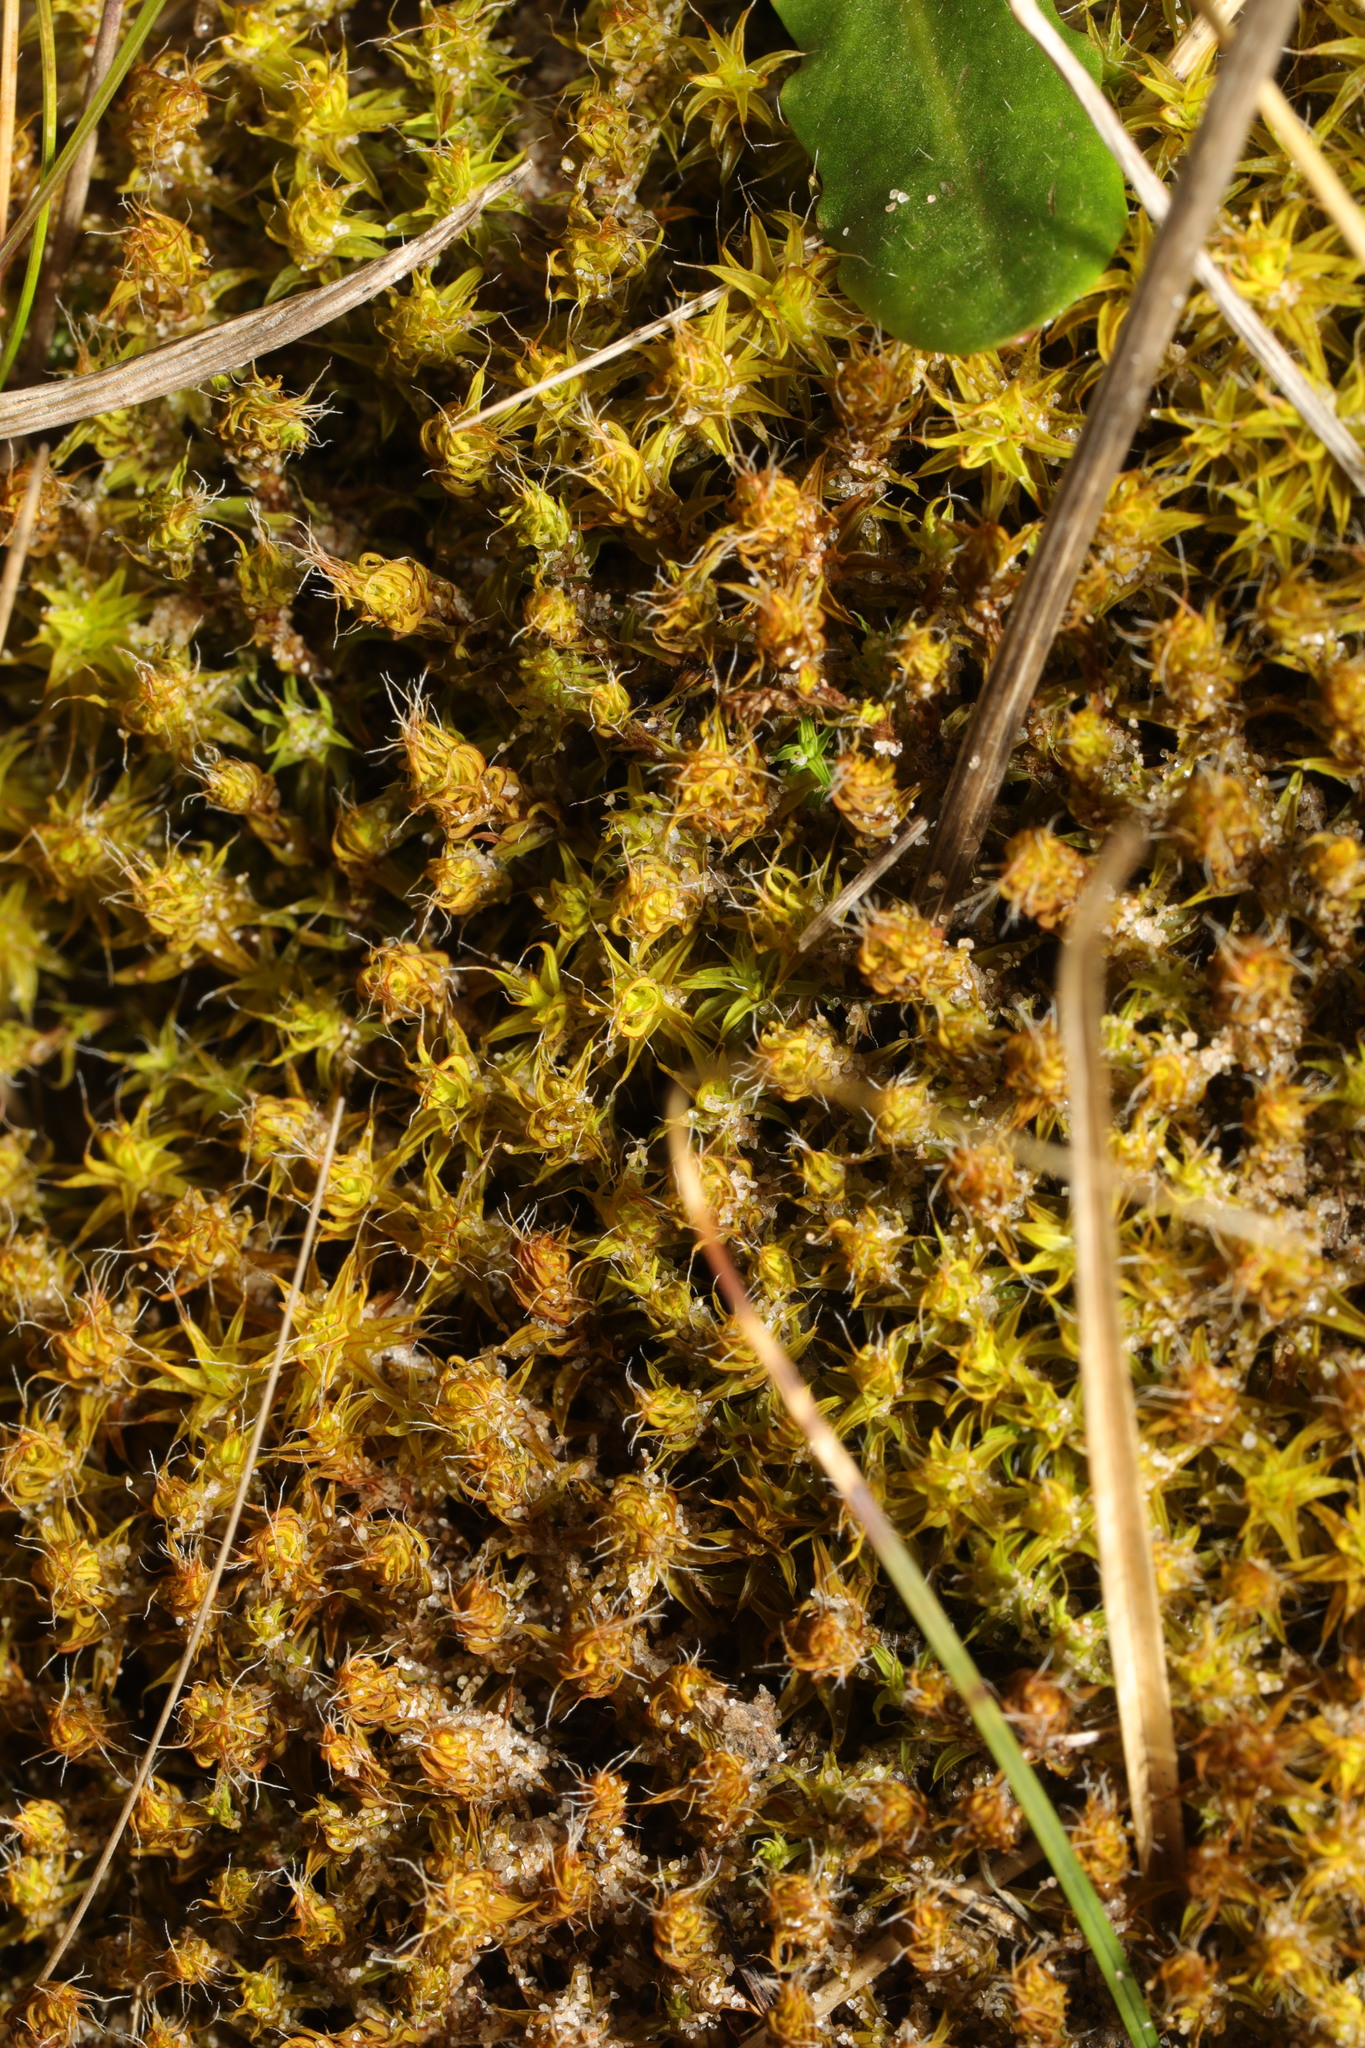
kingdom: Plantae
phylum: Bryophyta
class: Bryopsida
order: Pottiales
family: Pottiaceae
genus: Syntrichia
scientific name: Syntrichia ruralis
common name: Sidewalk screw moss
